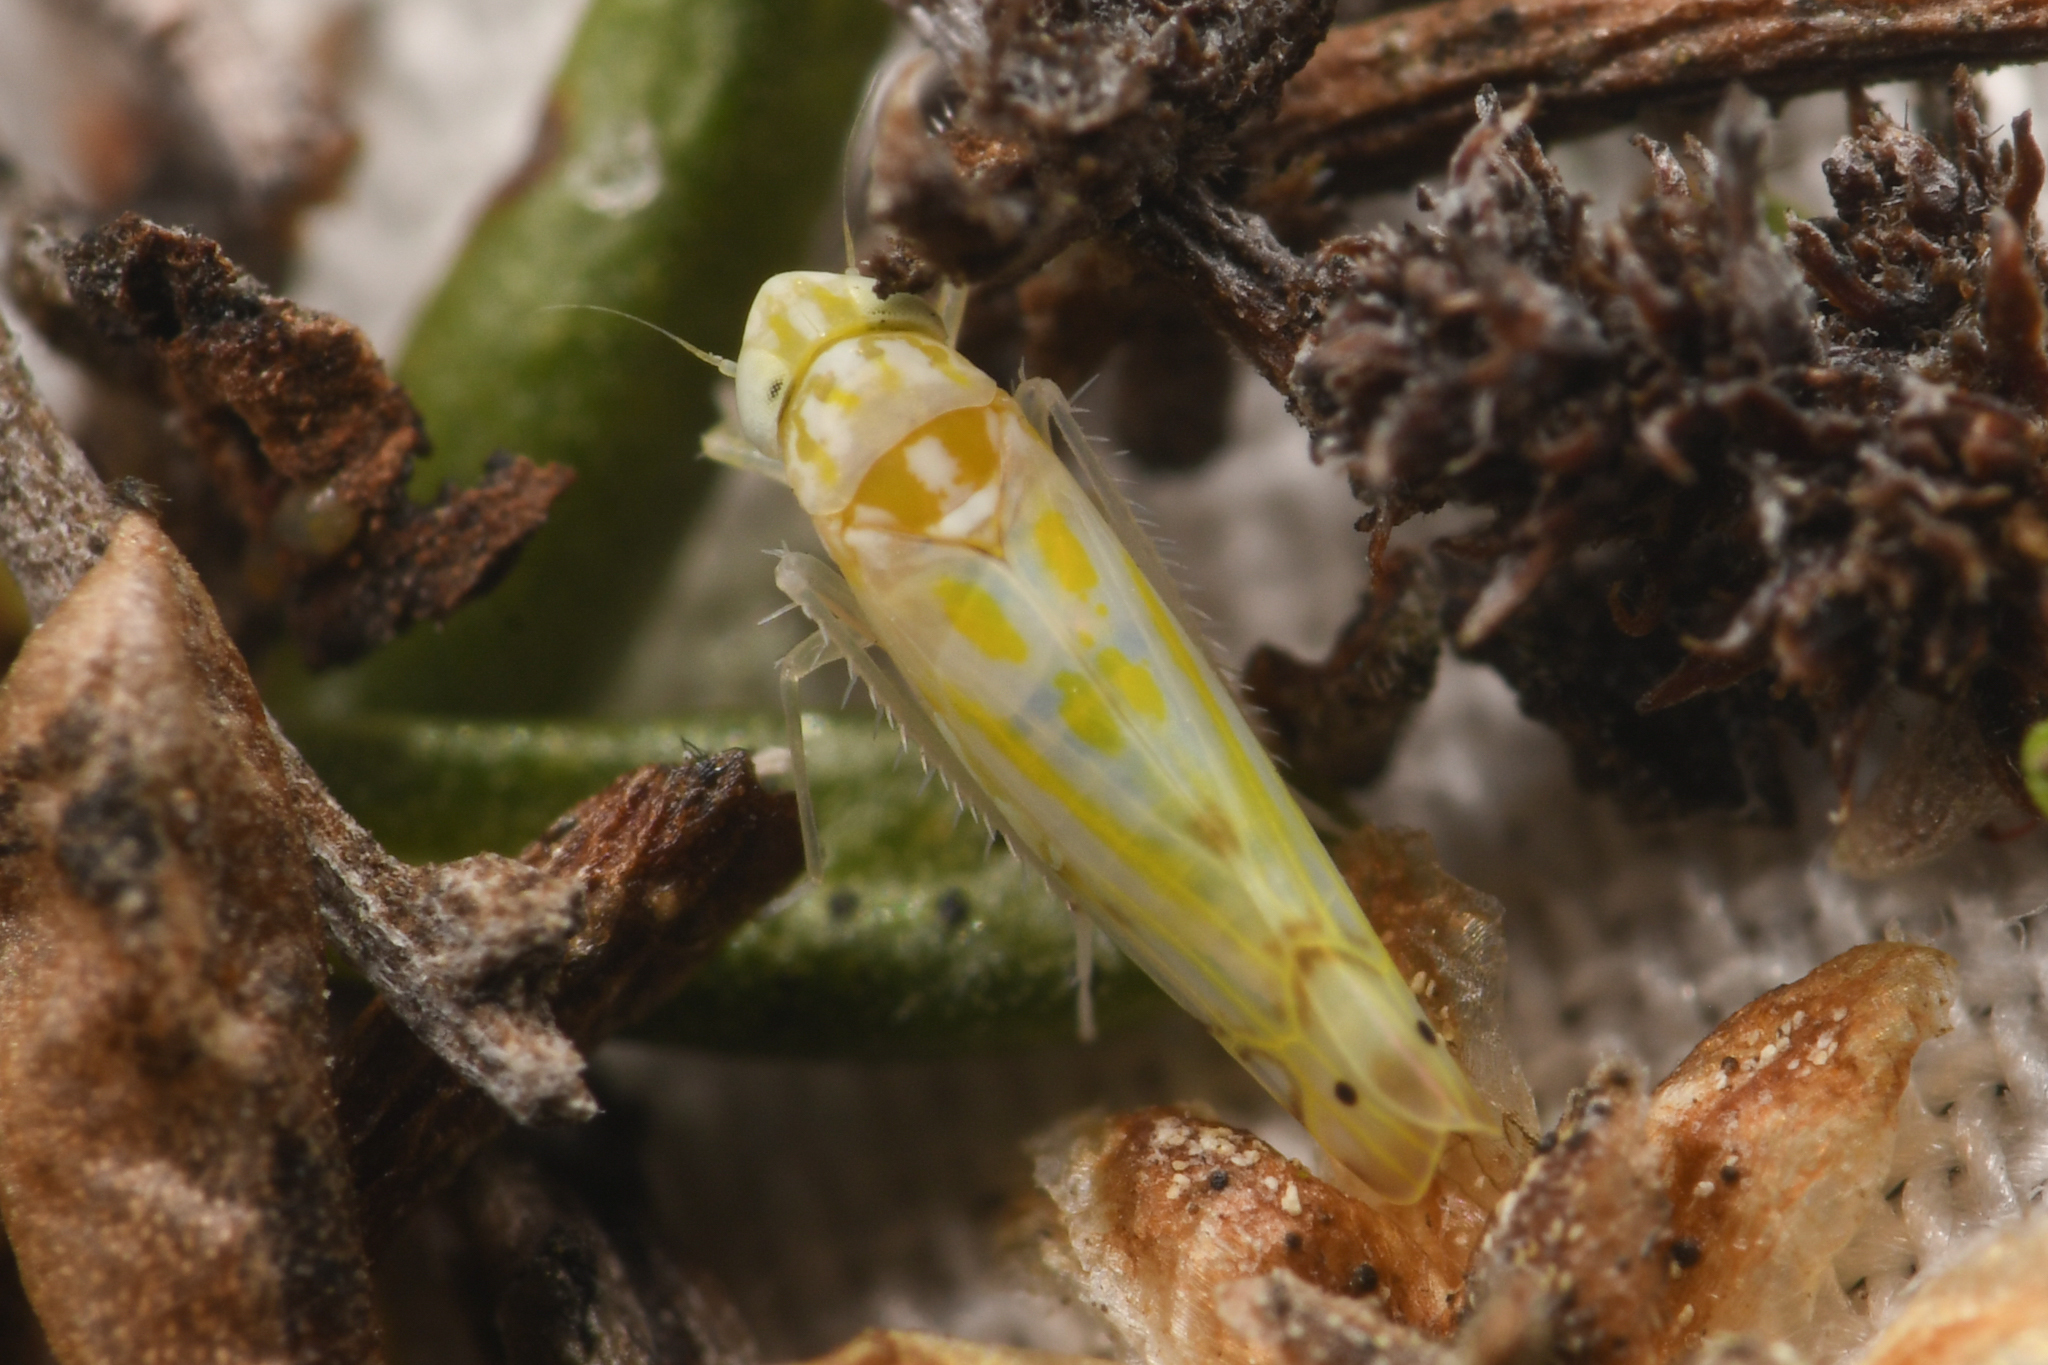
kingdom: Animalia
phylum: Arthropoda
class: Insecta
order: Hemiptera
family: Cicadellidae
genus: Alconeura
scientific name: Alconeura lappa
